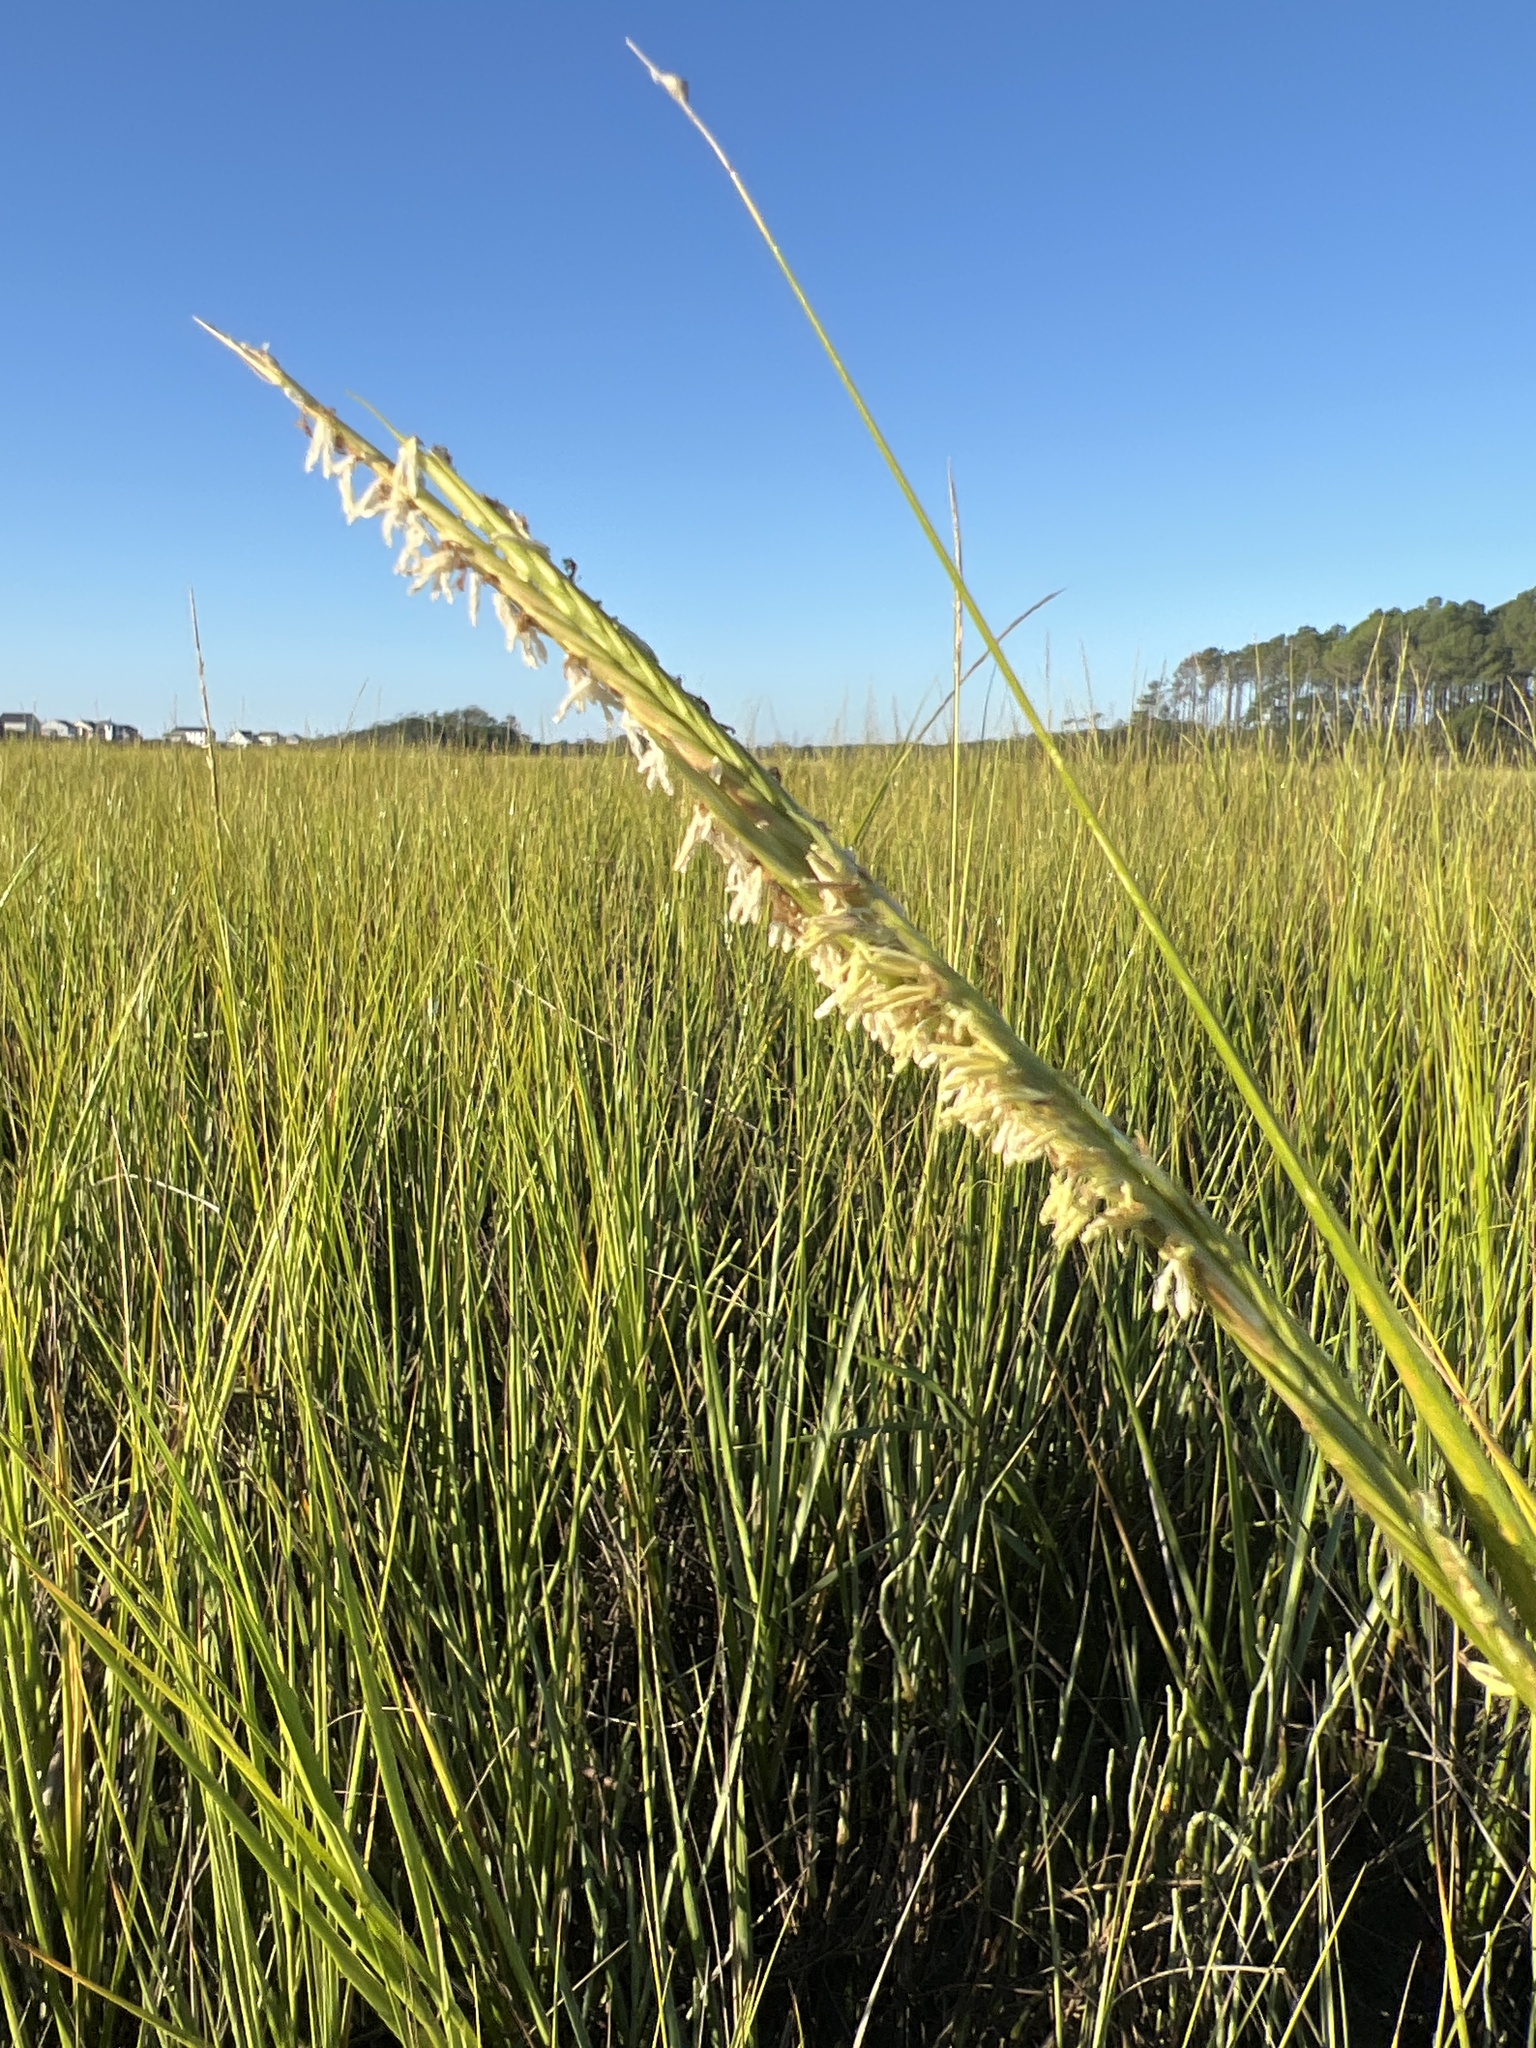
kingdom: Plantae
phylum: Tracheophyta
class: Liliopsida
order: Poales
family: Poaceae
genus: Sporobolus
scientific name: Sporobolus alterniflorus
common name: Atlantic cordgrass
